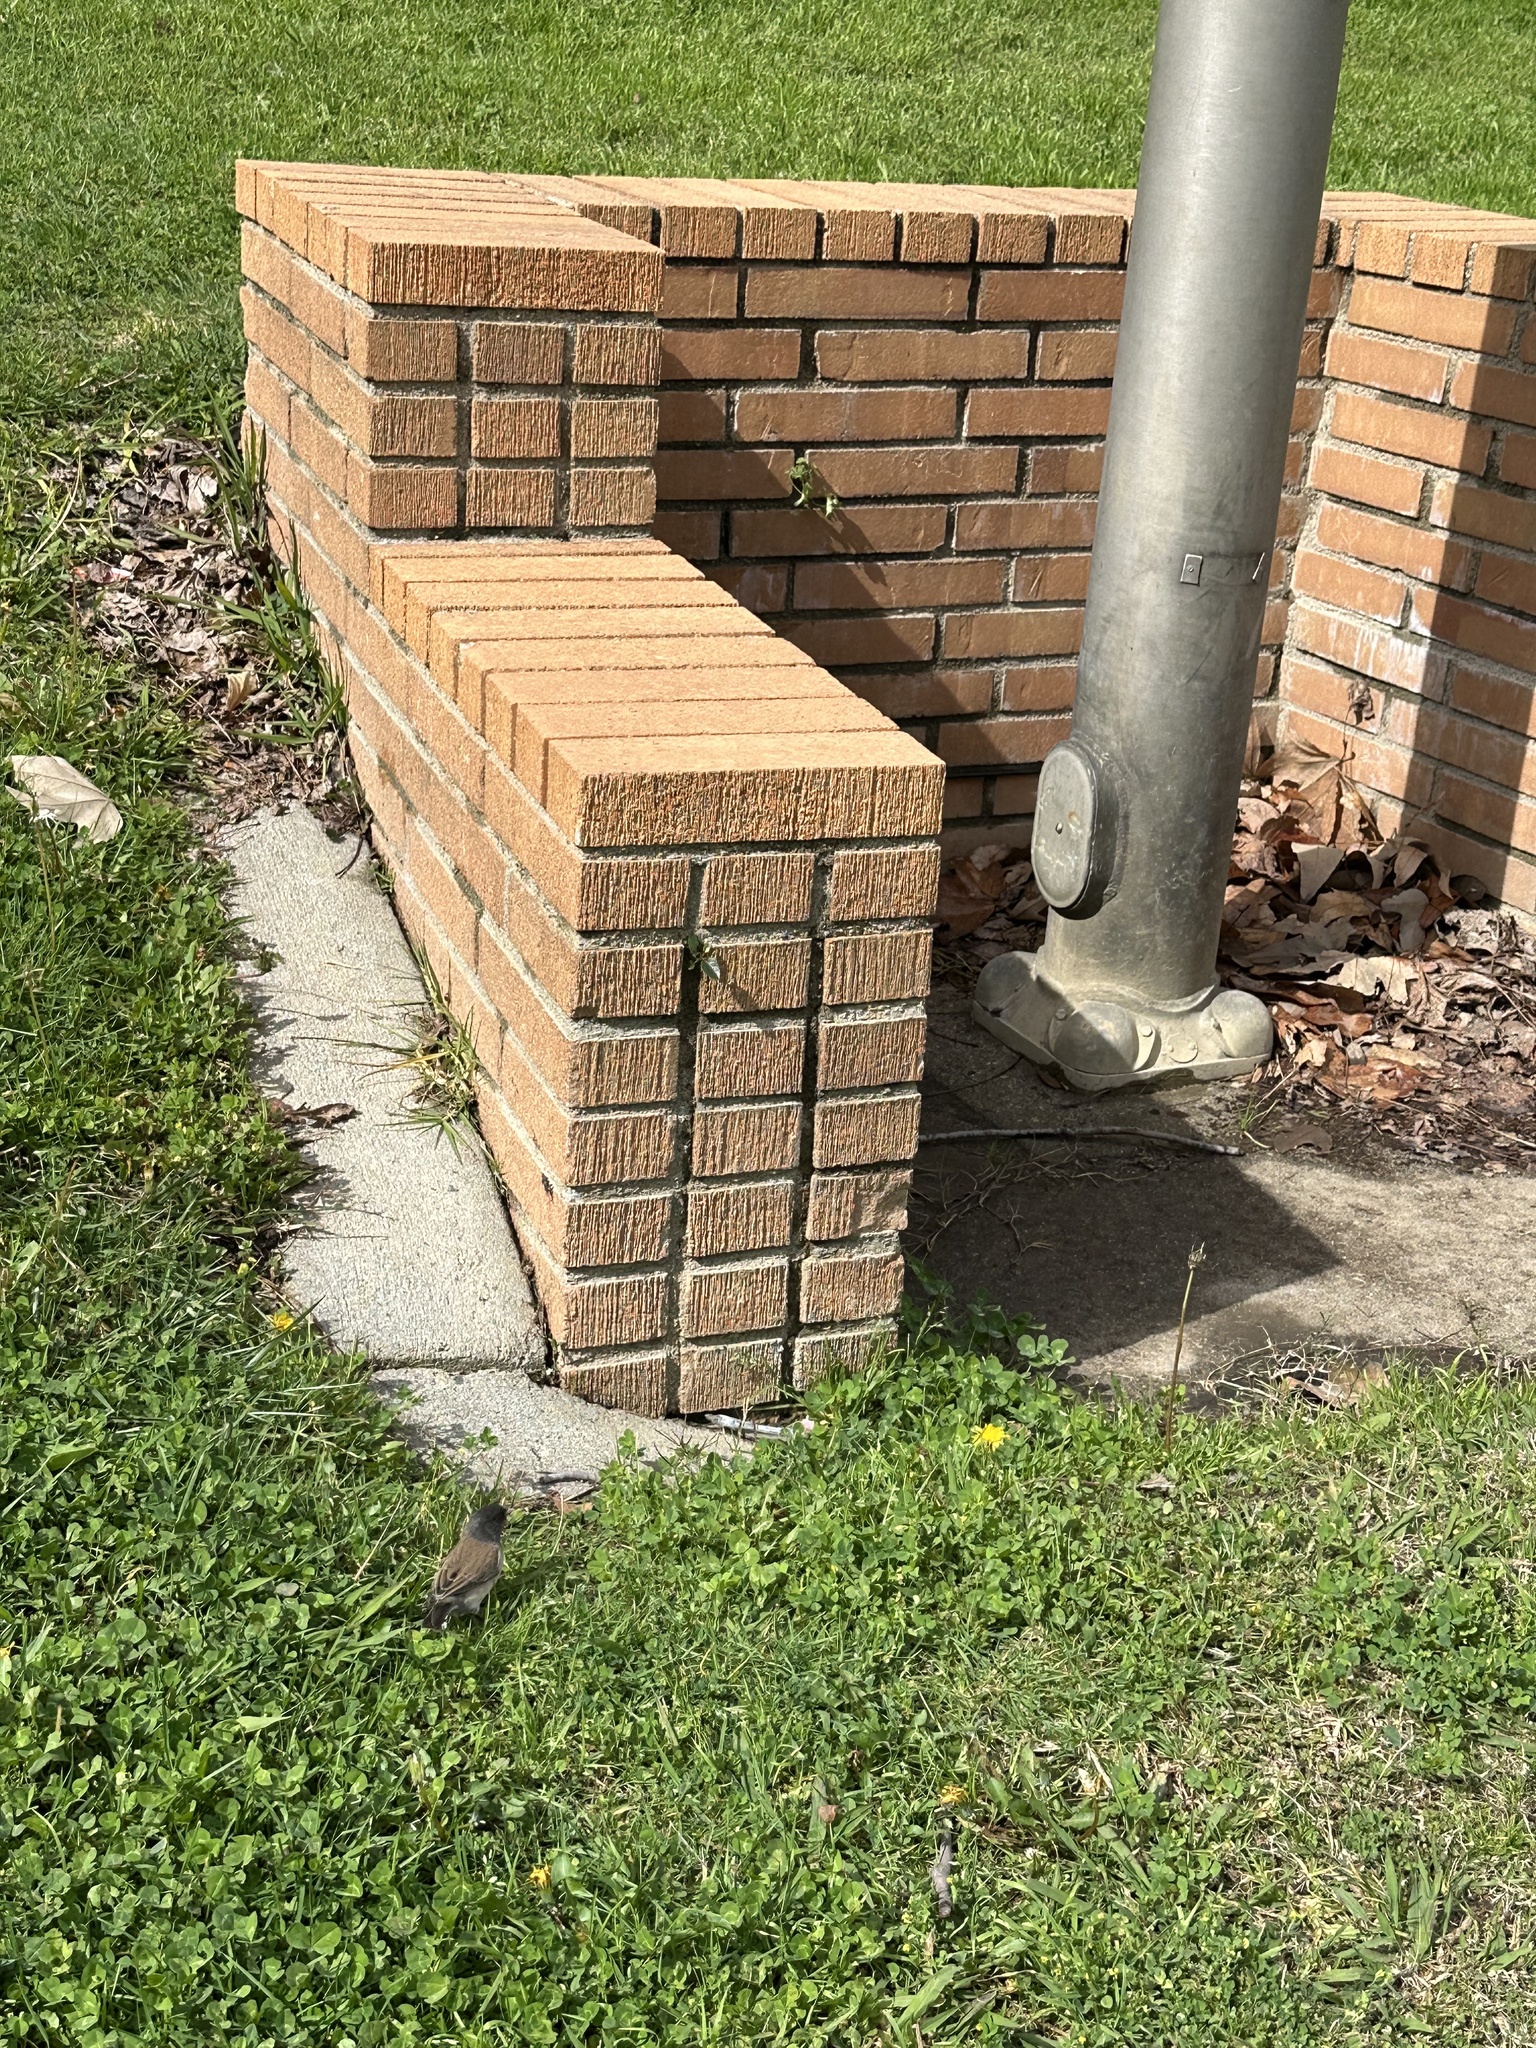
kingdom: Animalia
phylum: Chordata
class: Aves
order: Passeriformes
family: Passerellidae
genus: Junco
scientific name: Junco hyemalis
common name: Dark-eyed junco
